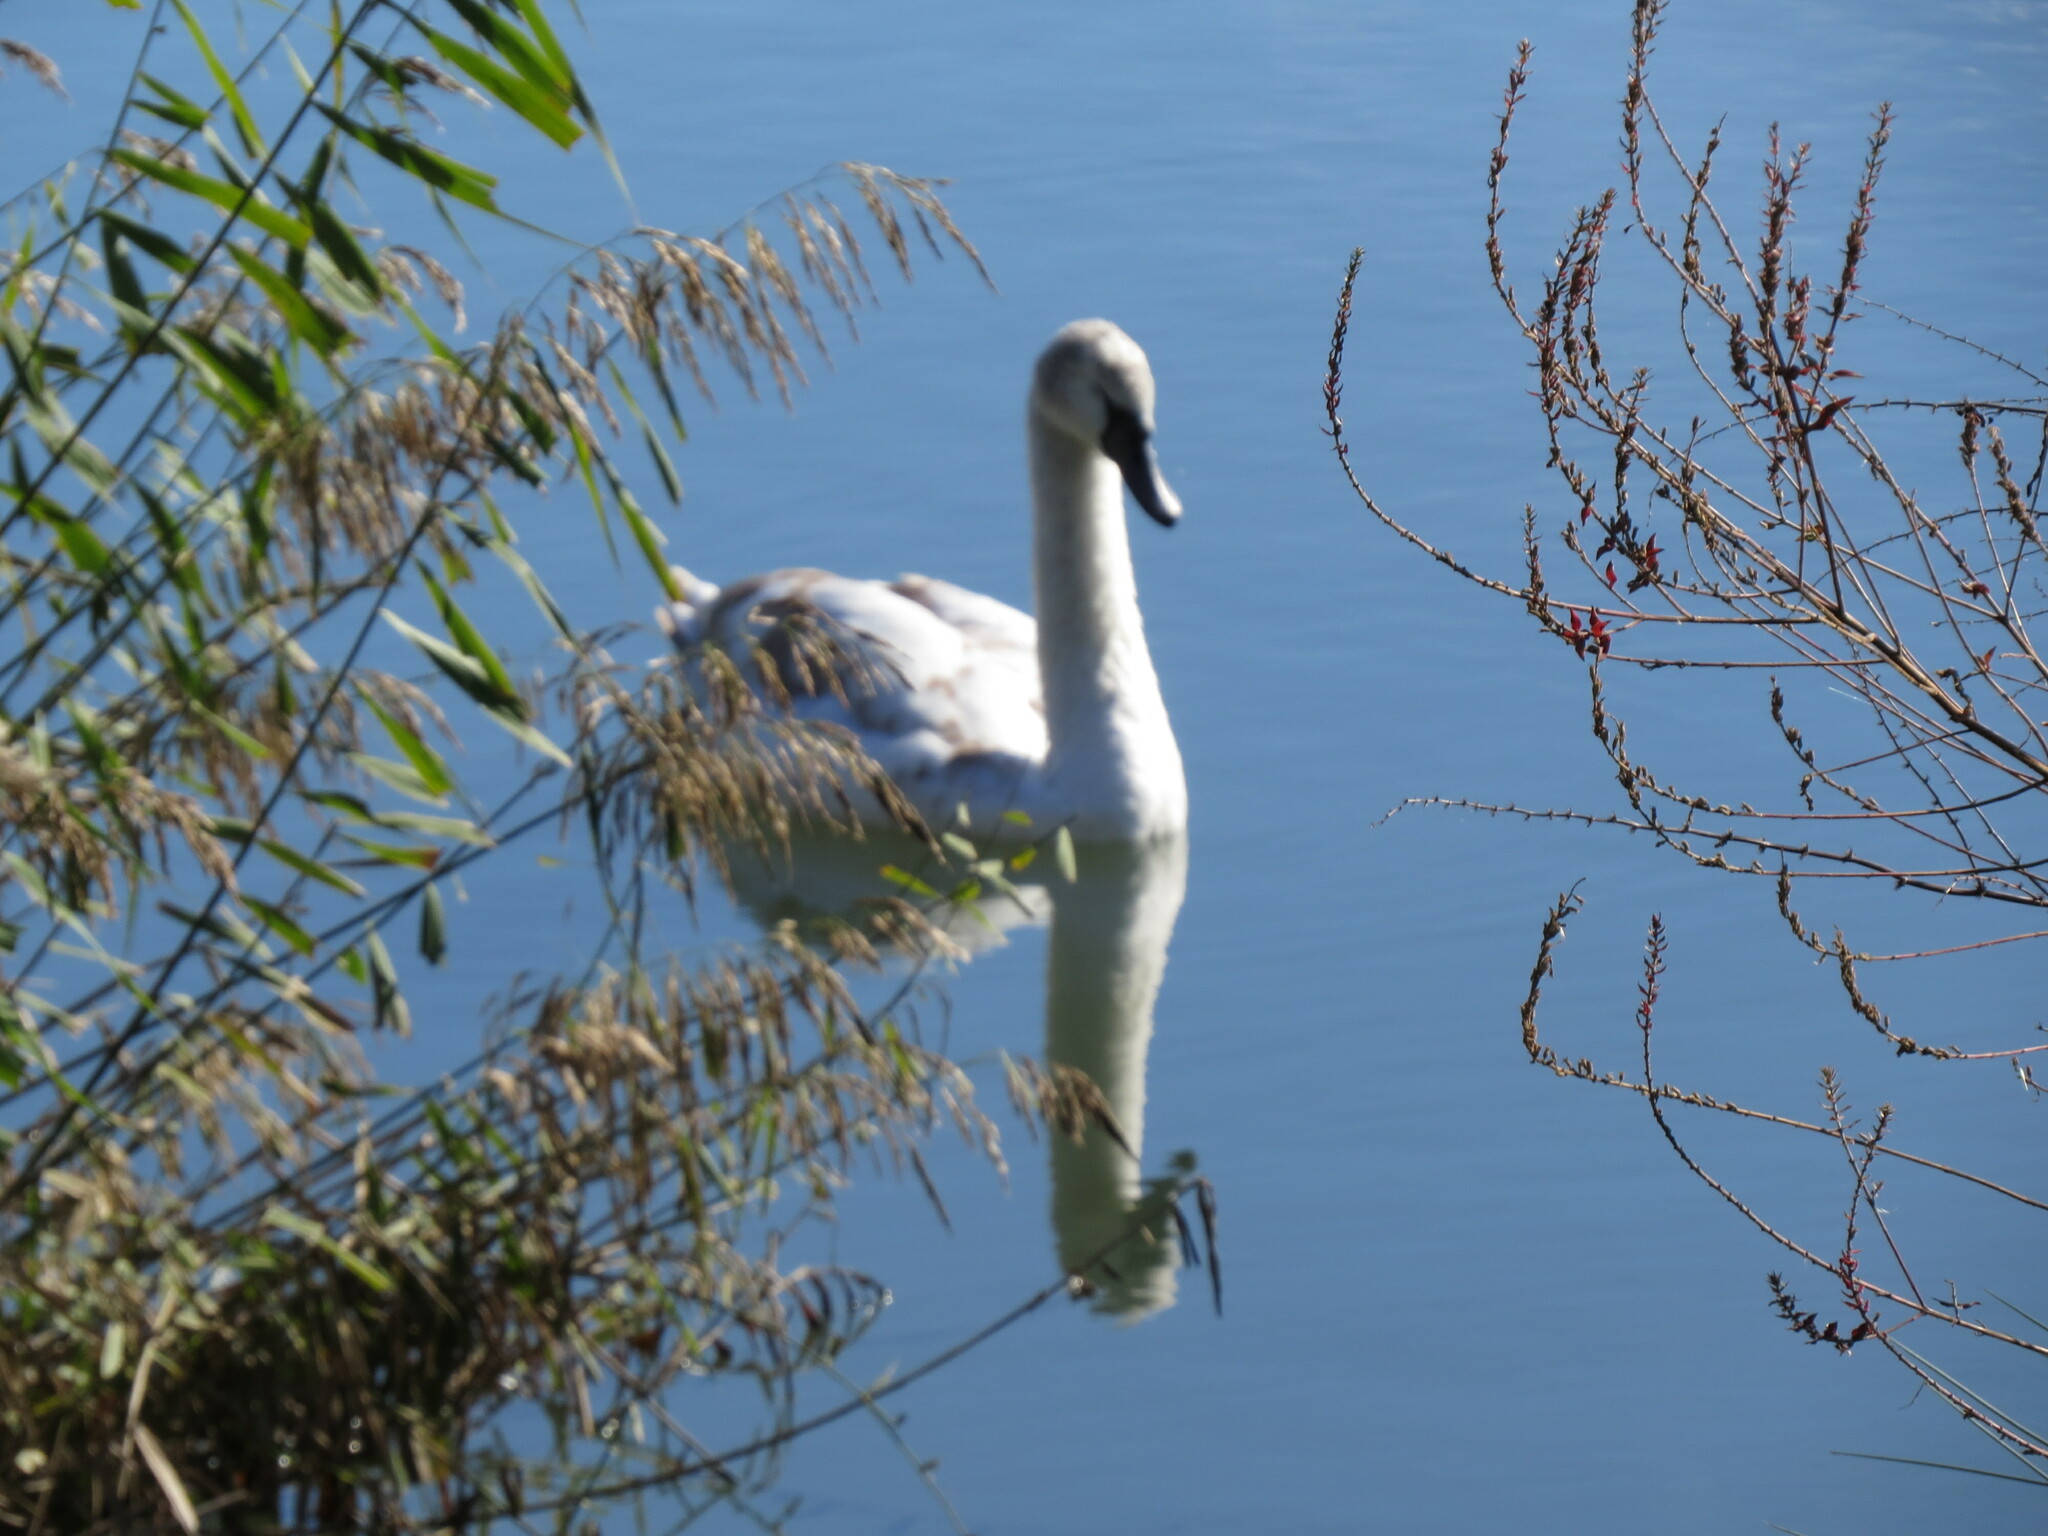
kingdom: Animalia
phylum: Chordata
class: Aves
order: Anseriformes
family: Anatidae
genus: Cygnus
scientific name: Cygnus olor
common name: Mute swan
